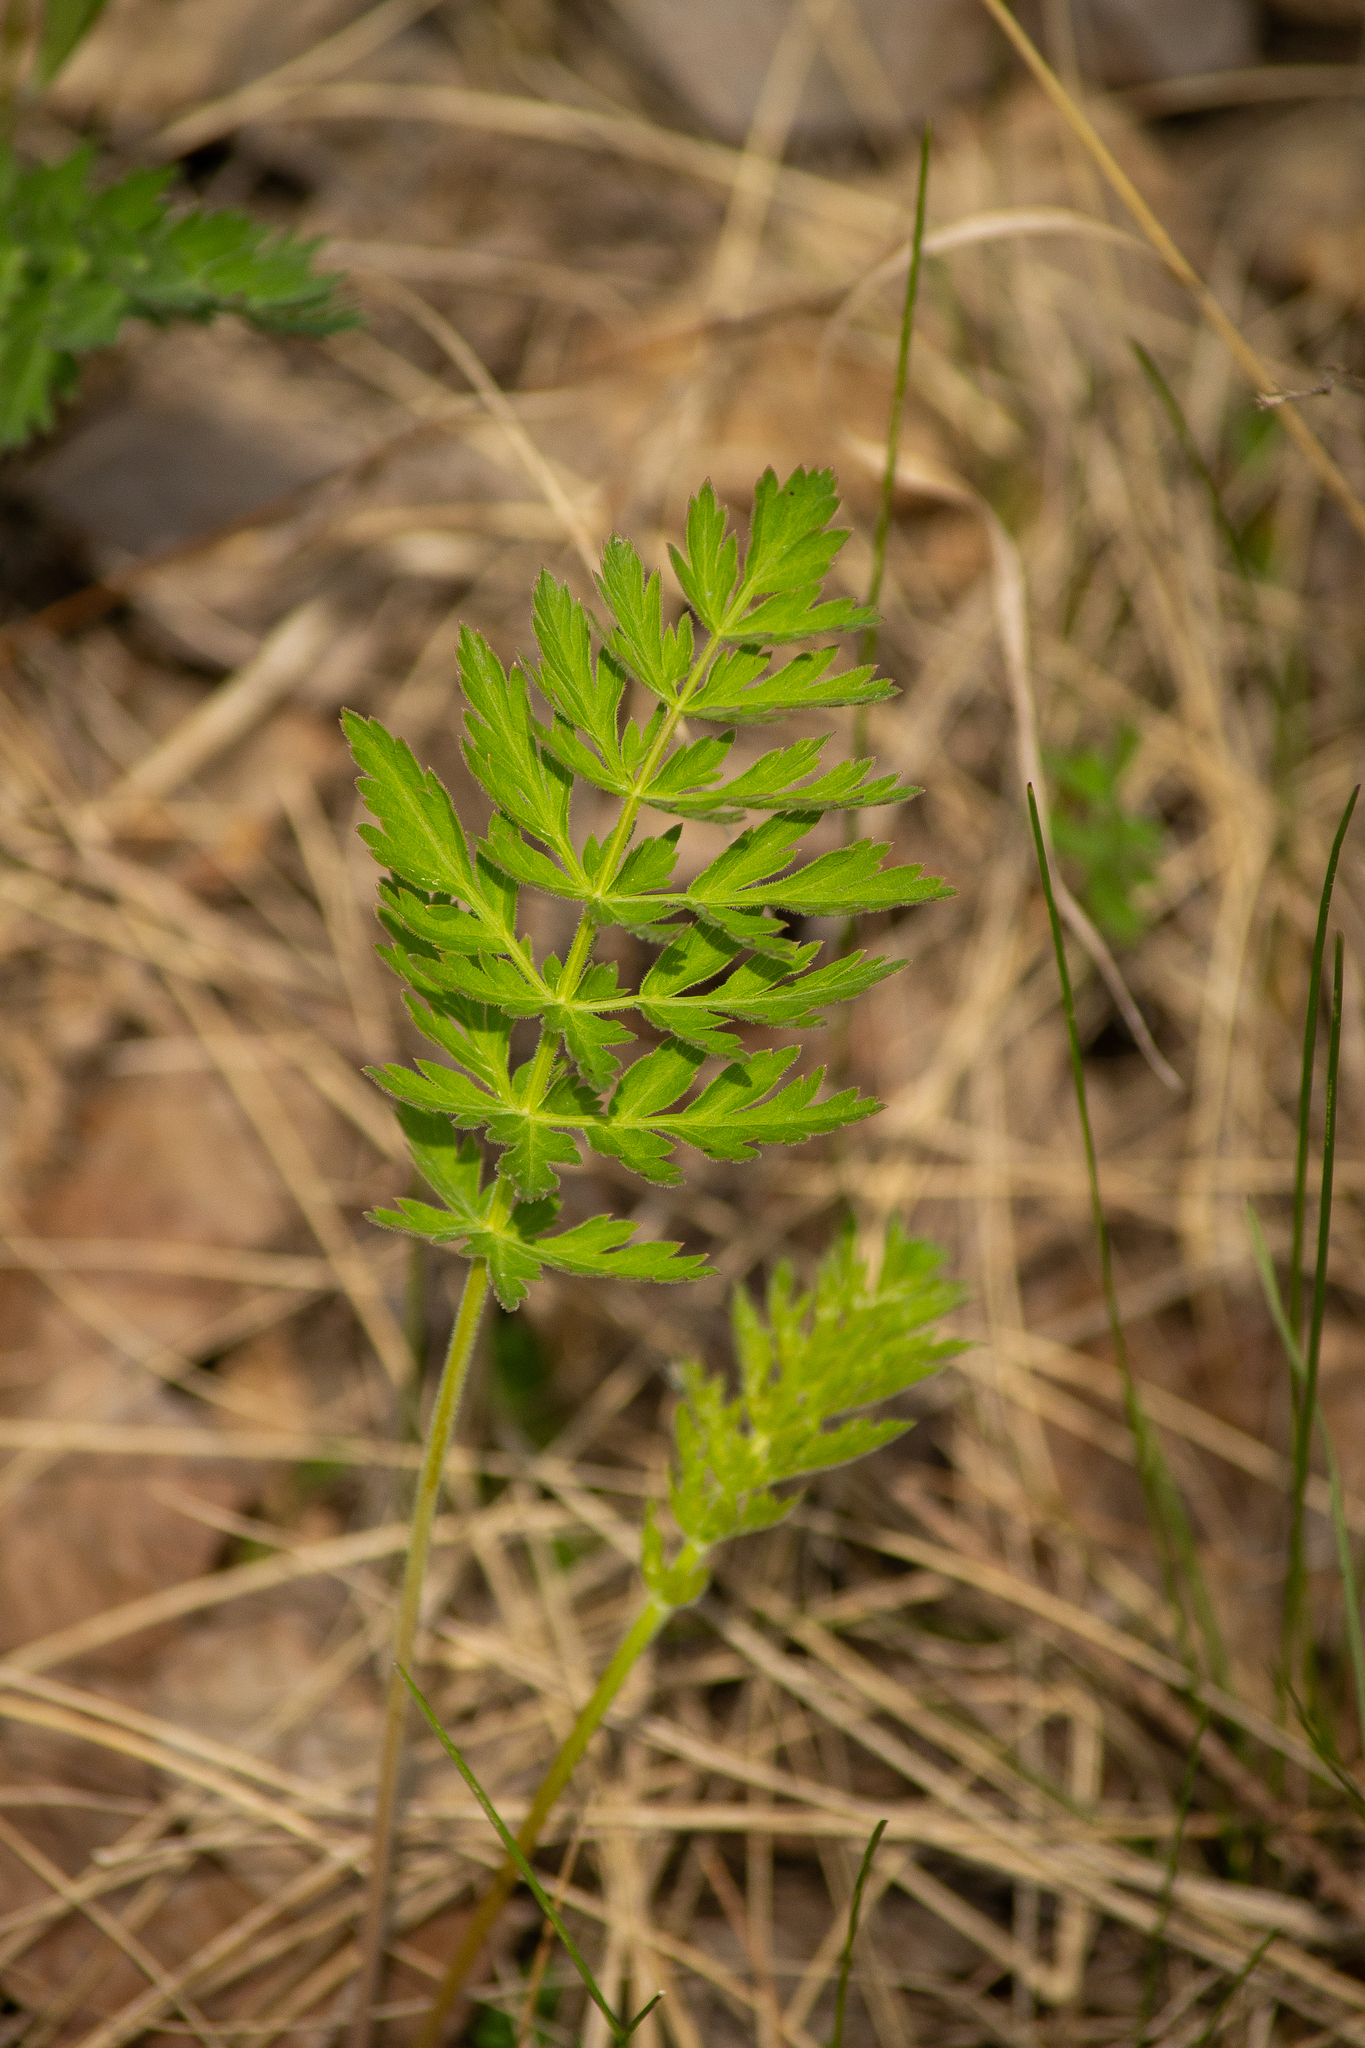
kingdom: Plantae
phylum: Tracheophyta
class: Magnoliopsida
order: Apiales
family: Apiaceae
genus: Seseli
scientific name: Seseli libanotis
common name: Mooncarrot
